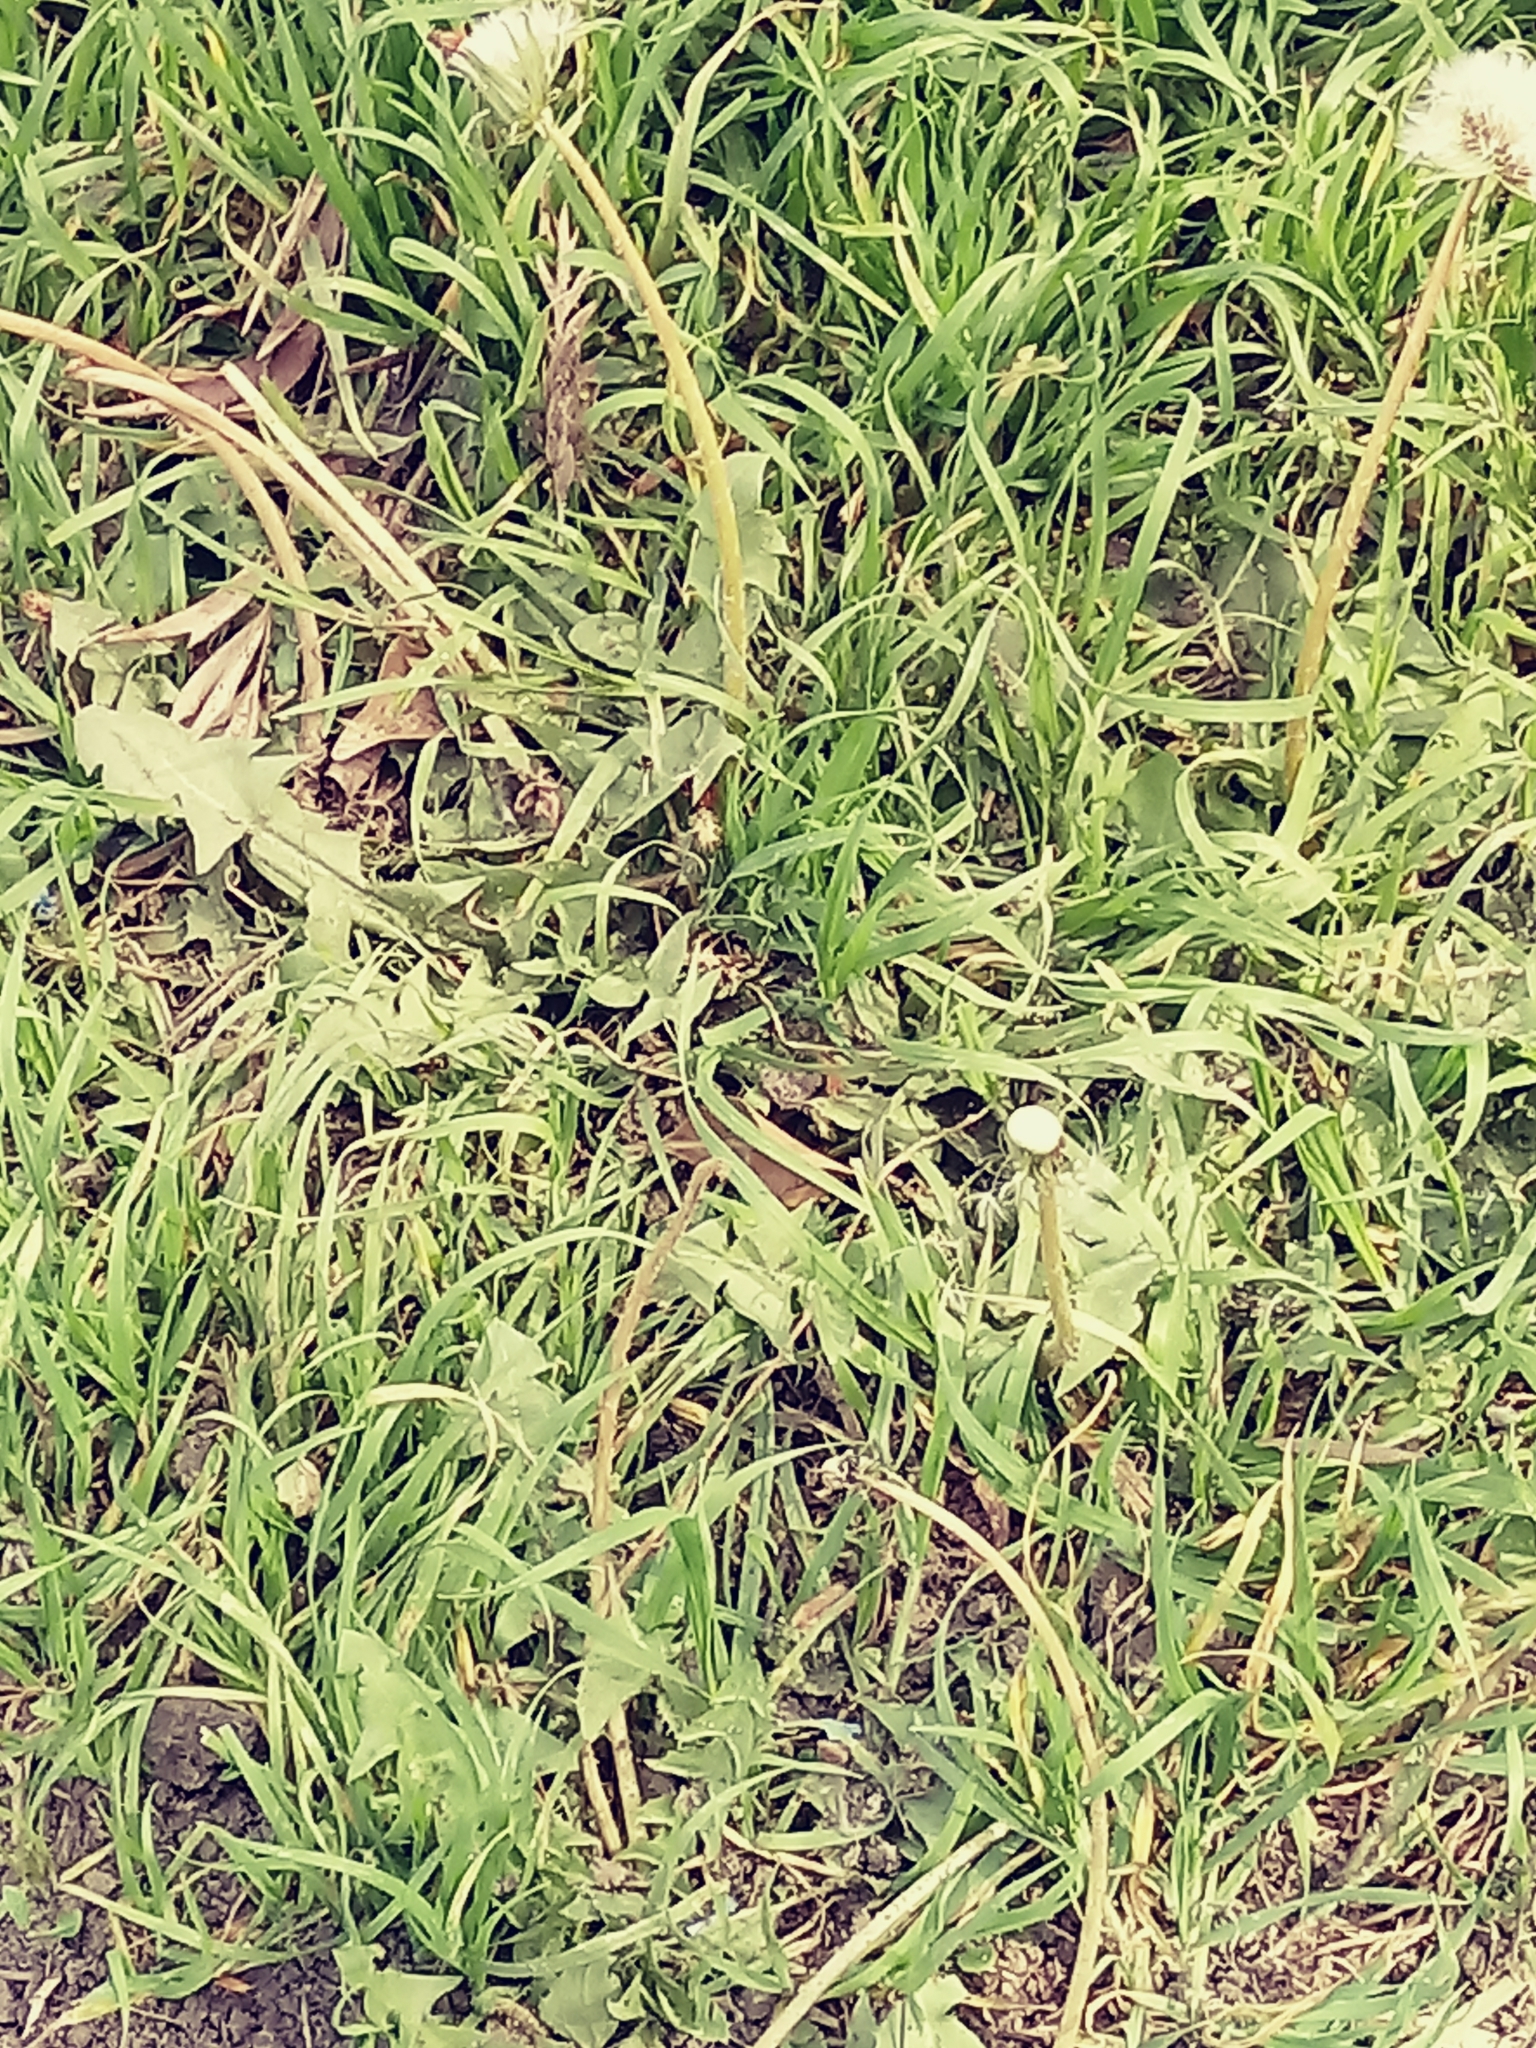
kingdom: Plantae
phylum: Tracheophyta
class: Magnoliopsida
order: Asterales
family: Asteraceae
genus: Taraxacum
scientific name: Taraxacum officinale
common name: Common dandelion
